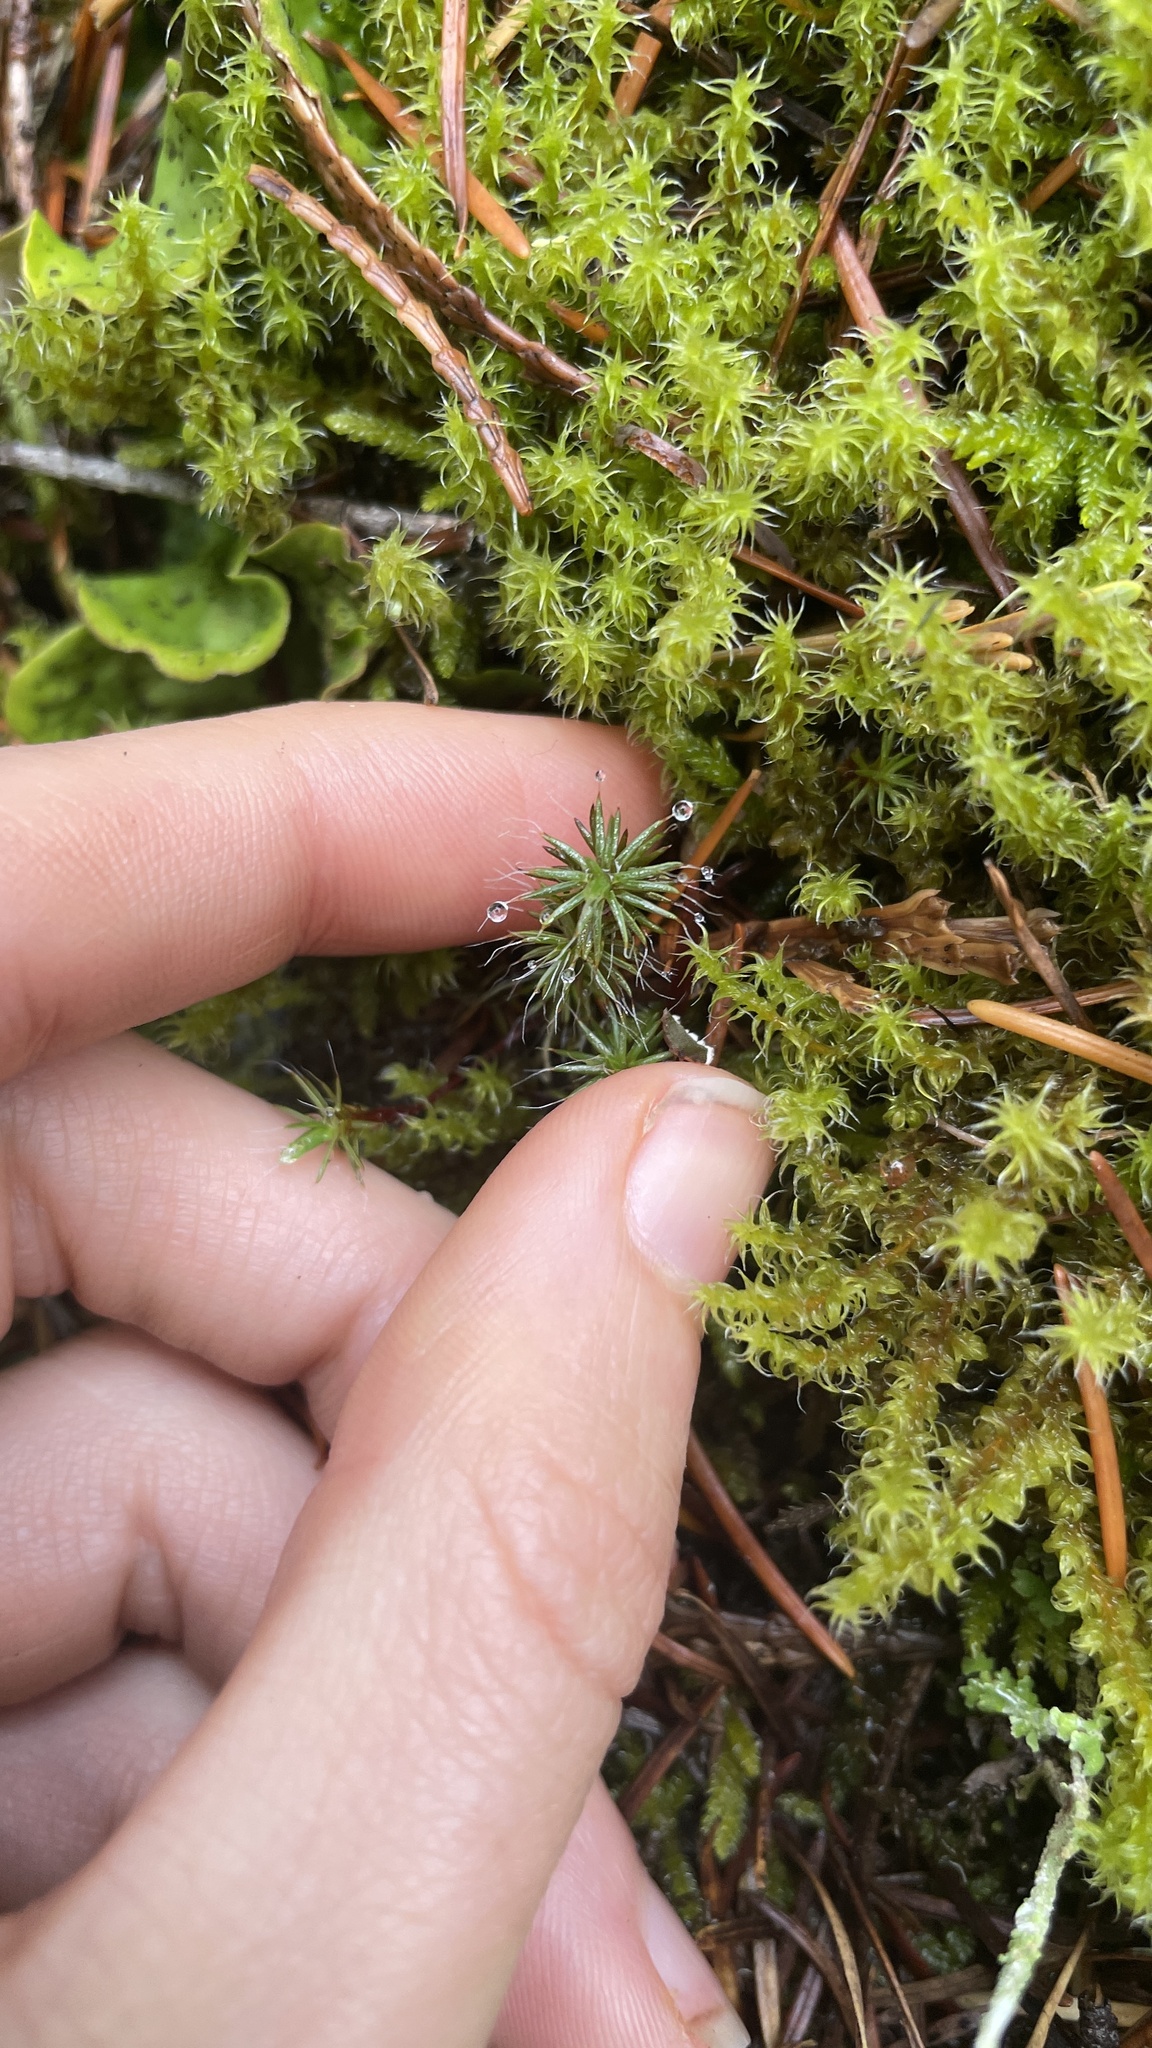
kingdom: Plantae
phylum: Bryophyta
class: Polytrichopsida
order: Polytrichales
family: Polytrichaceae
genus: Polytrichum
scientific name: Polytrichum piliferum
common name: Bristly haircap
